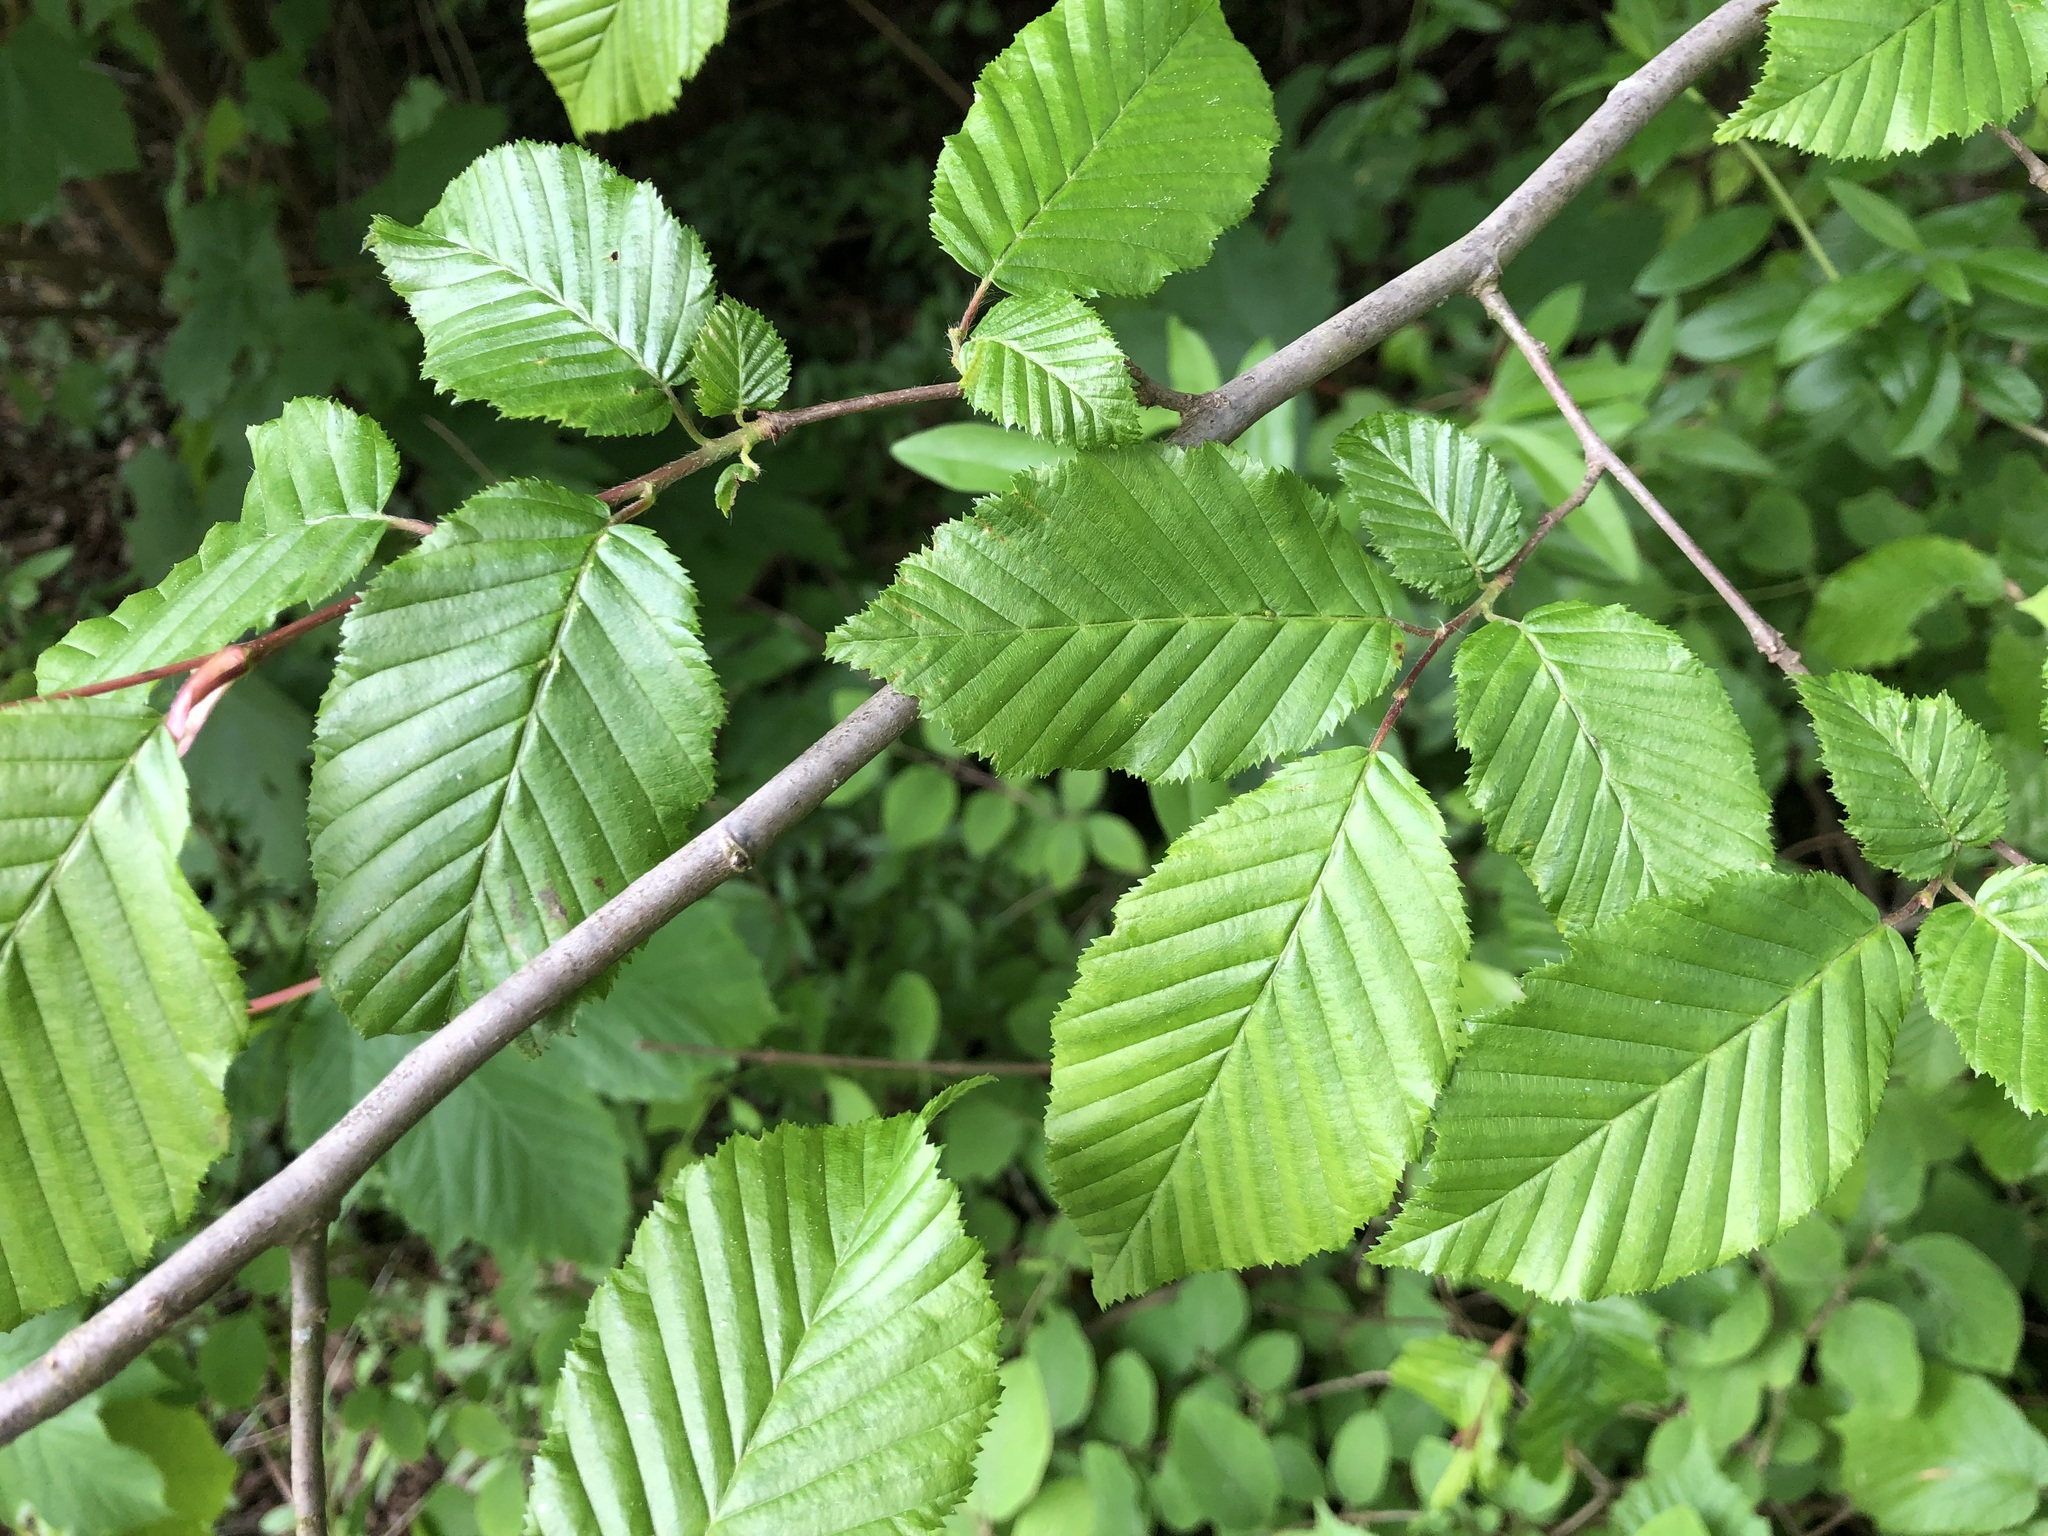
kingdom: Plantae
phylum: Tracheophyta
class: Magnoliopsida
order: Fagales
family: Betulaceae
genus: Carpinus
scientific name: Carpinus betulus
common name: Hornbeam
